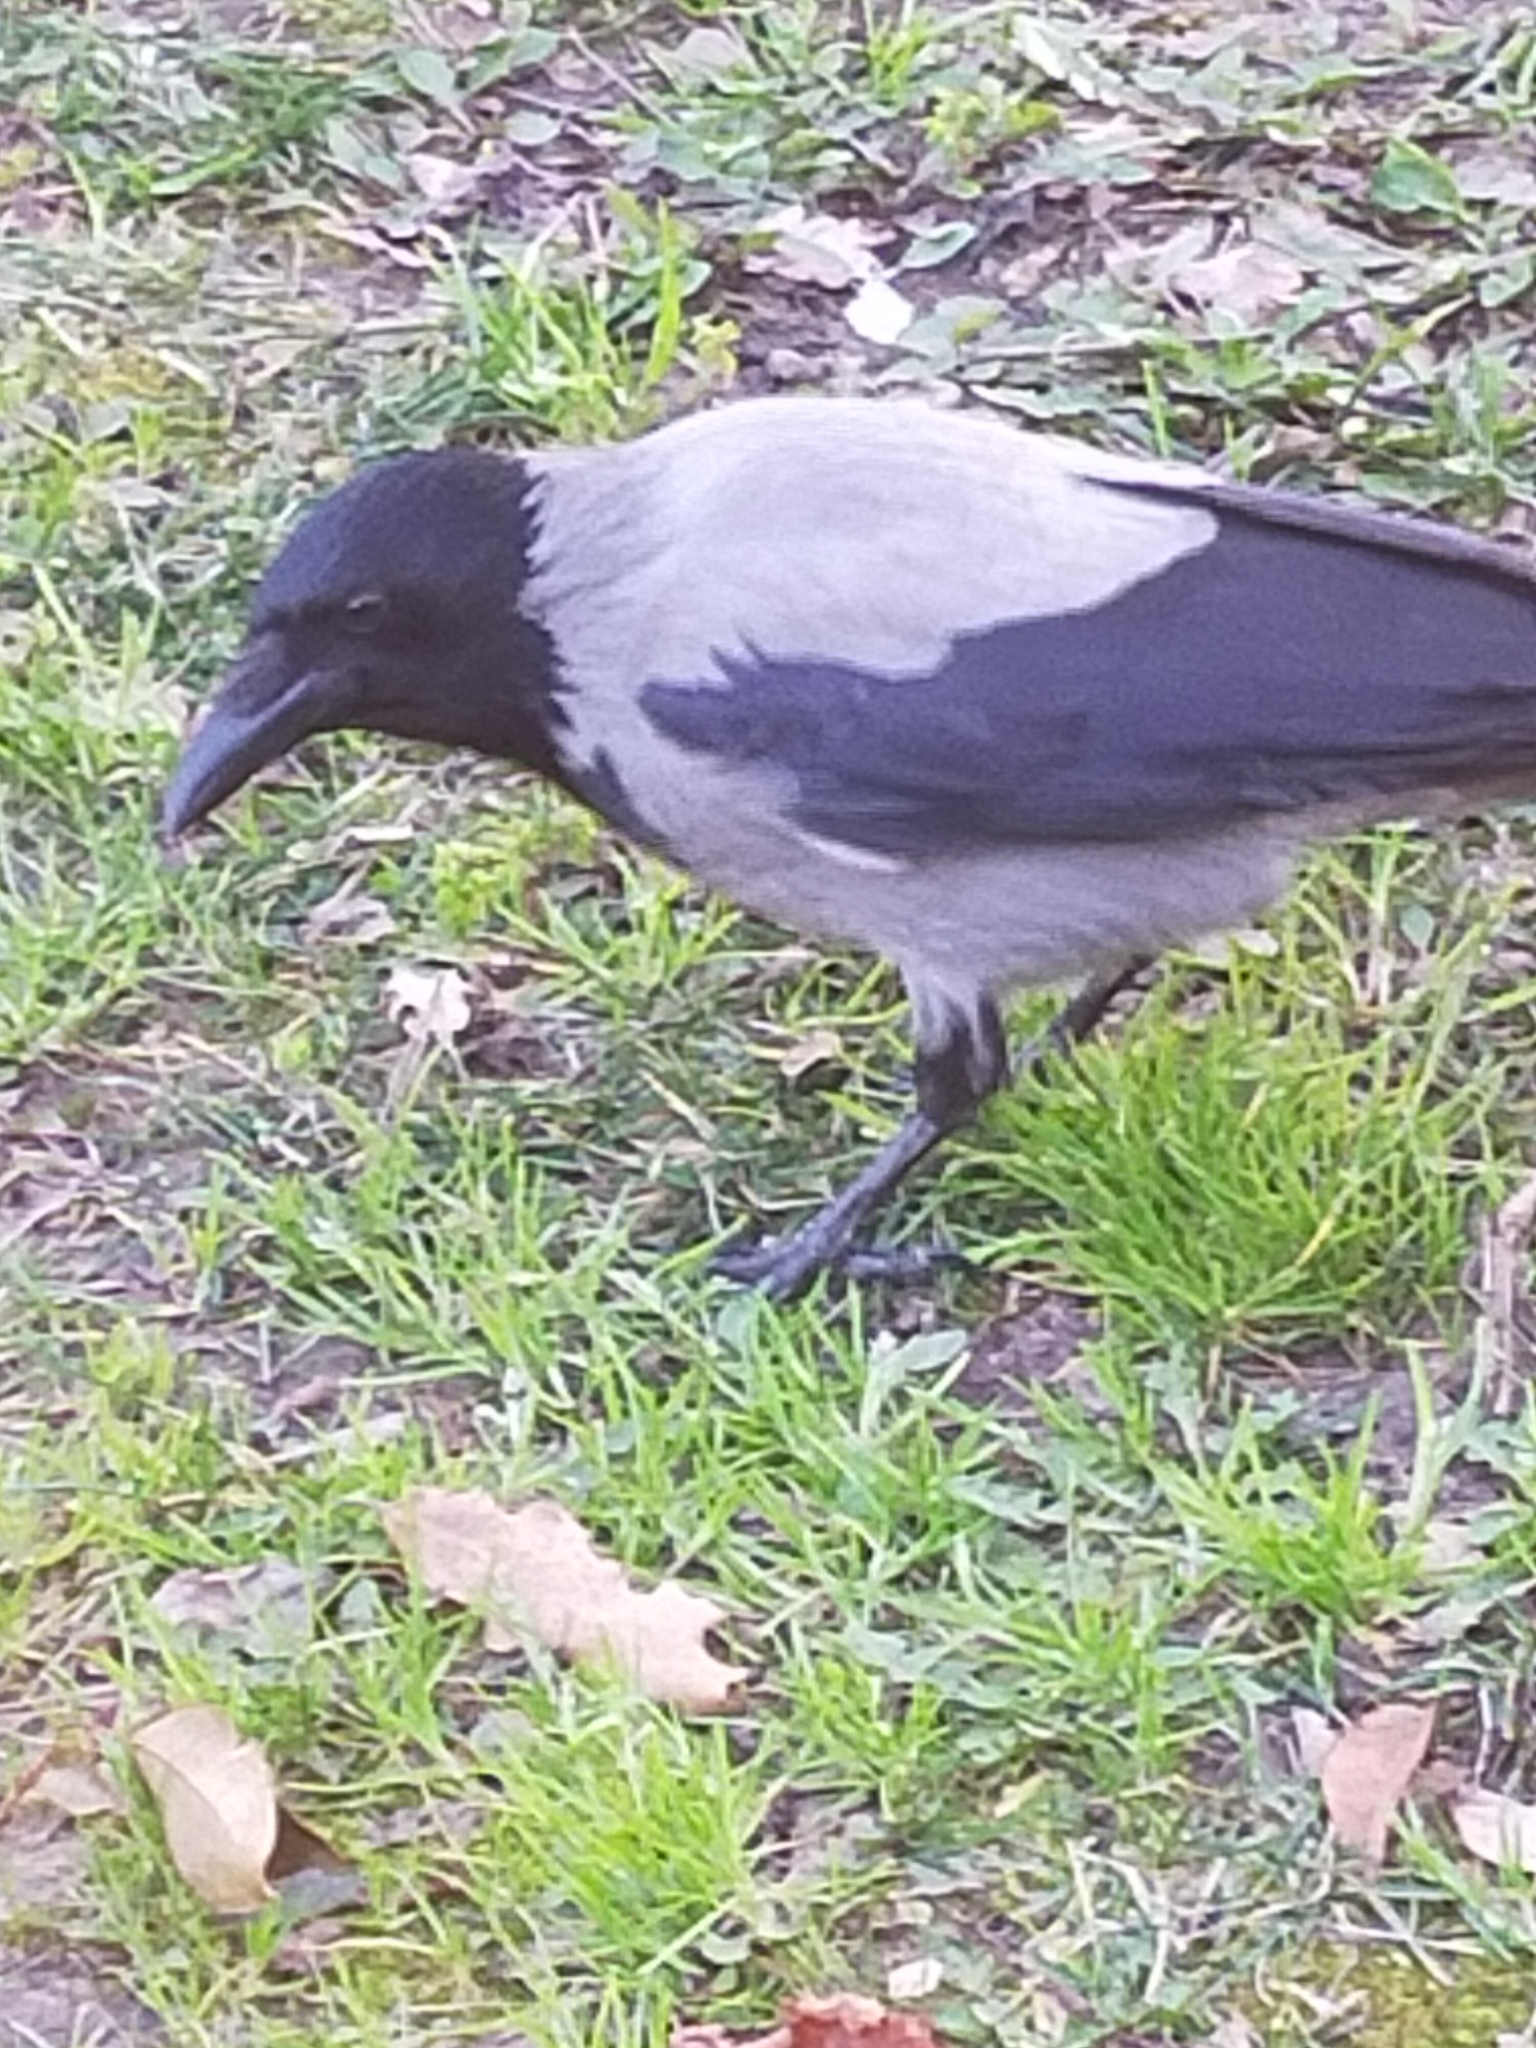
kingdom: Animalia
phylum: Chordata
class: Aves
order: Passeriformes
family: Corvidae
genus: Corvus
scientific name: Corvus cornix
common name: Hooded crow
